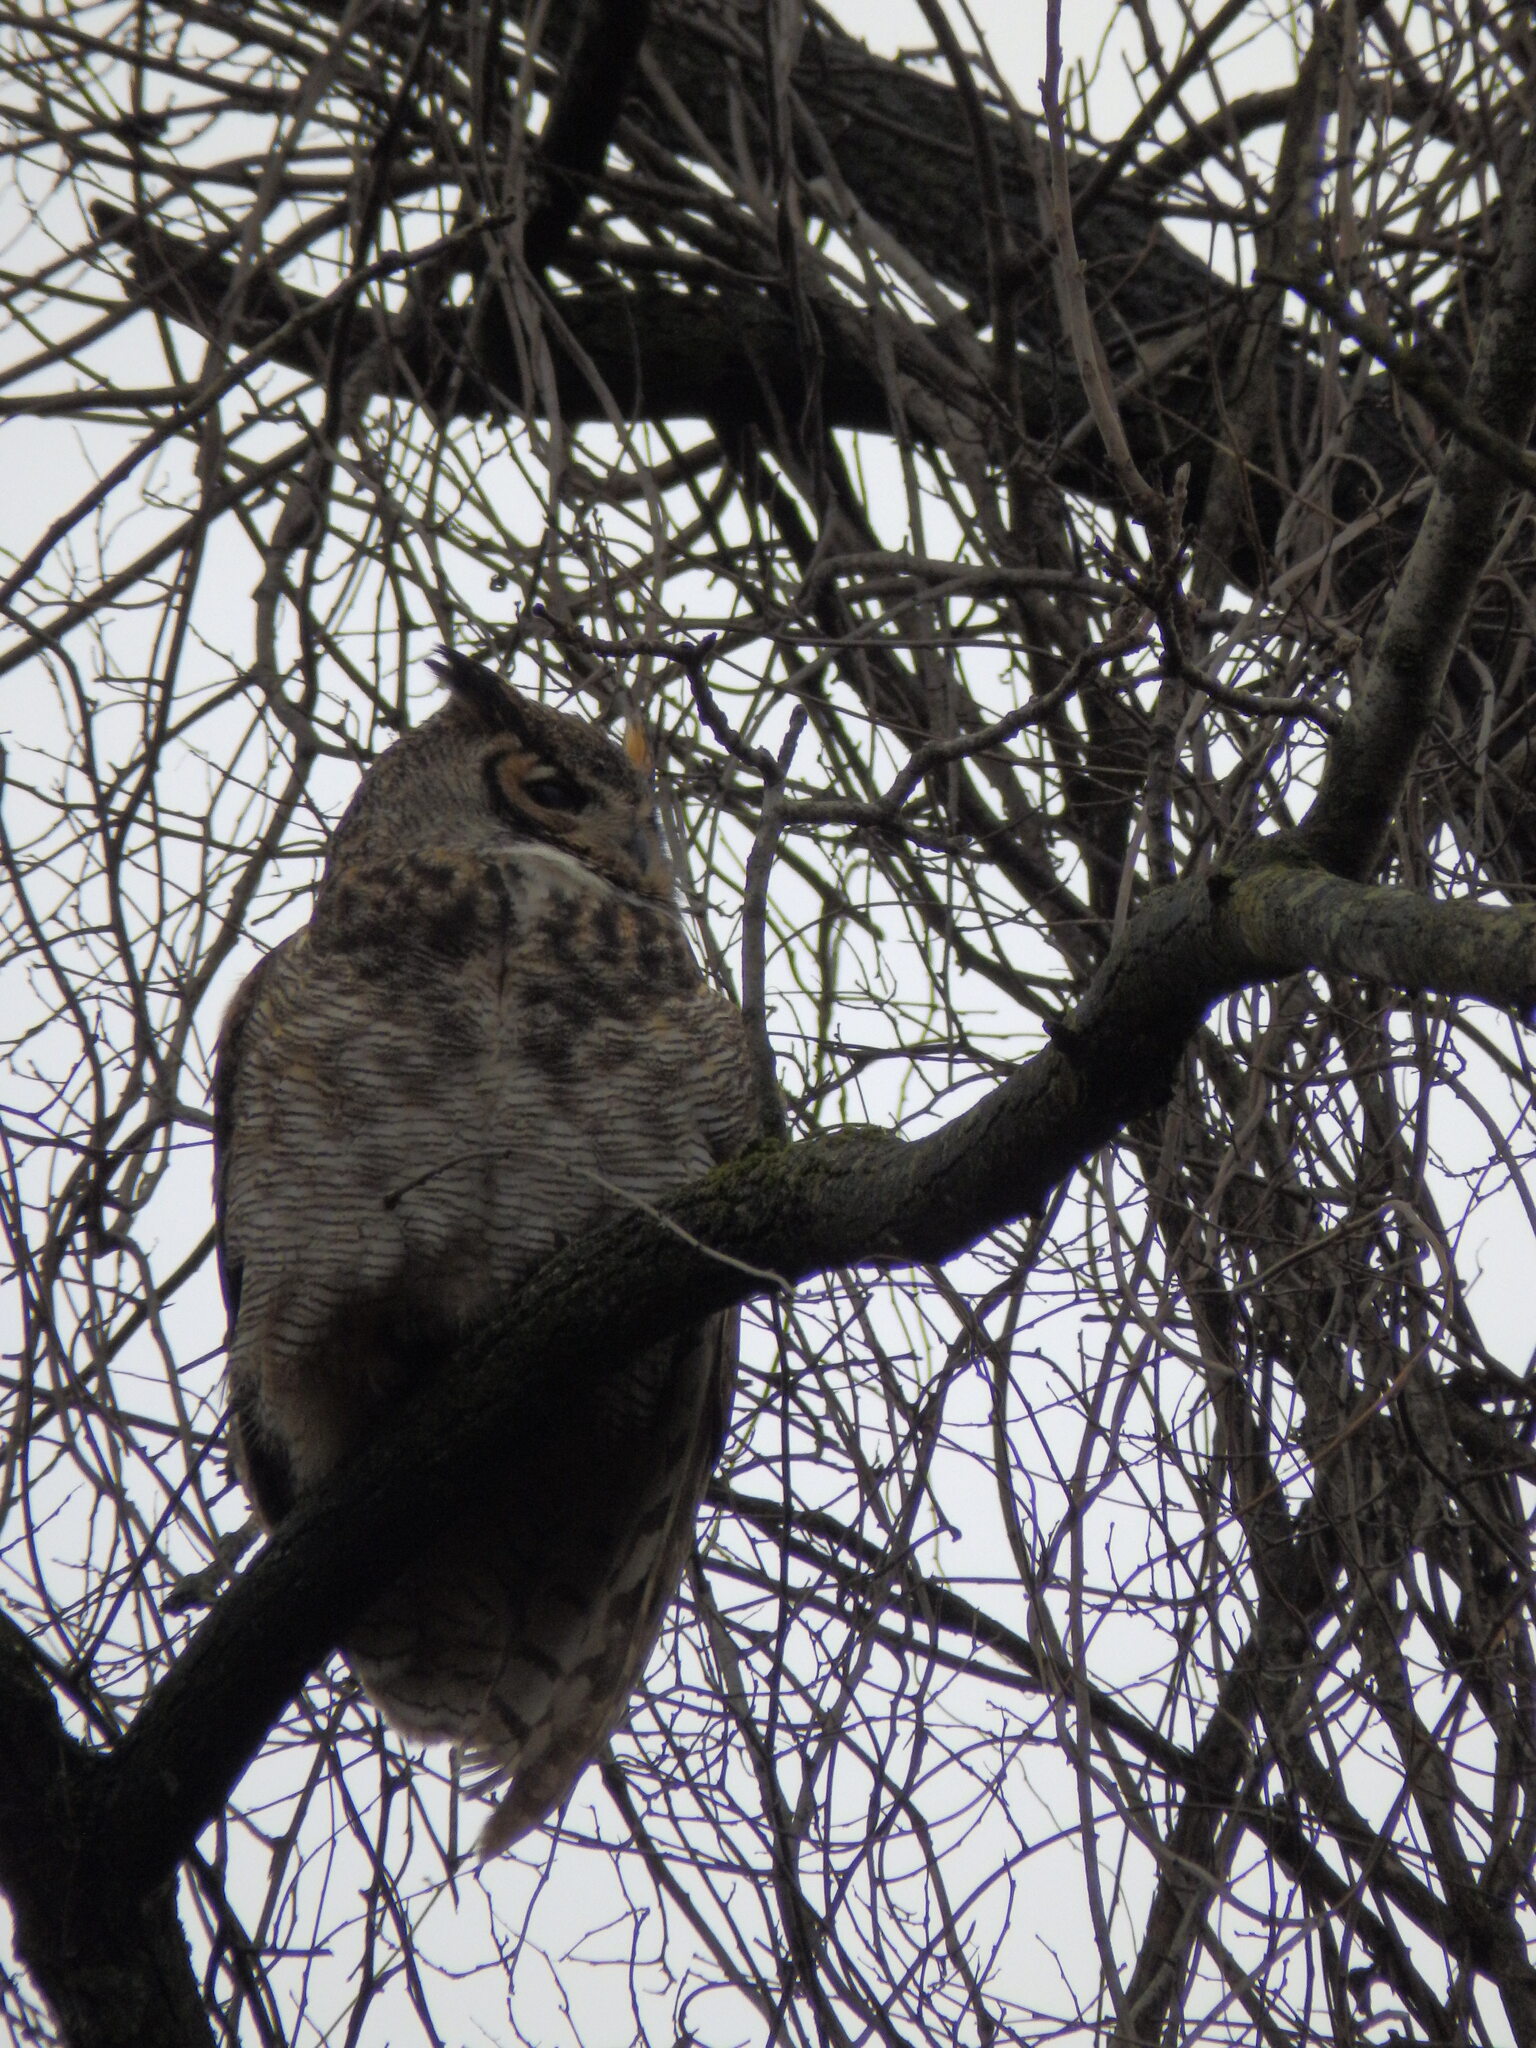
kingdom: Animalia
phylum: Chordata
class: Aves
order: Strigiformes
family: Strigidae
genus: Bubo
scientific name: Bubo virginianus
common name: Great horned owl
